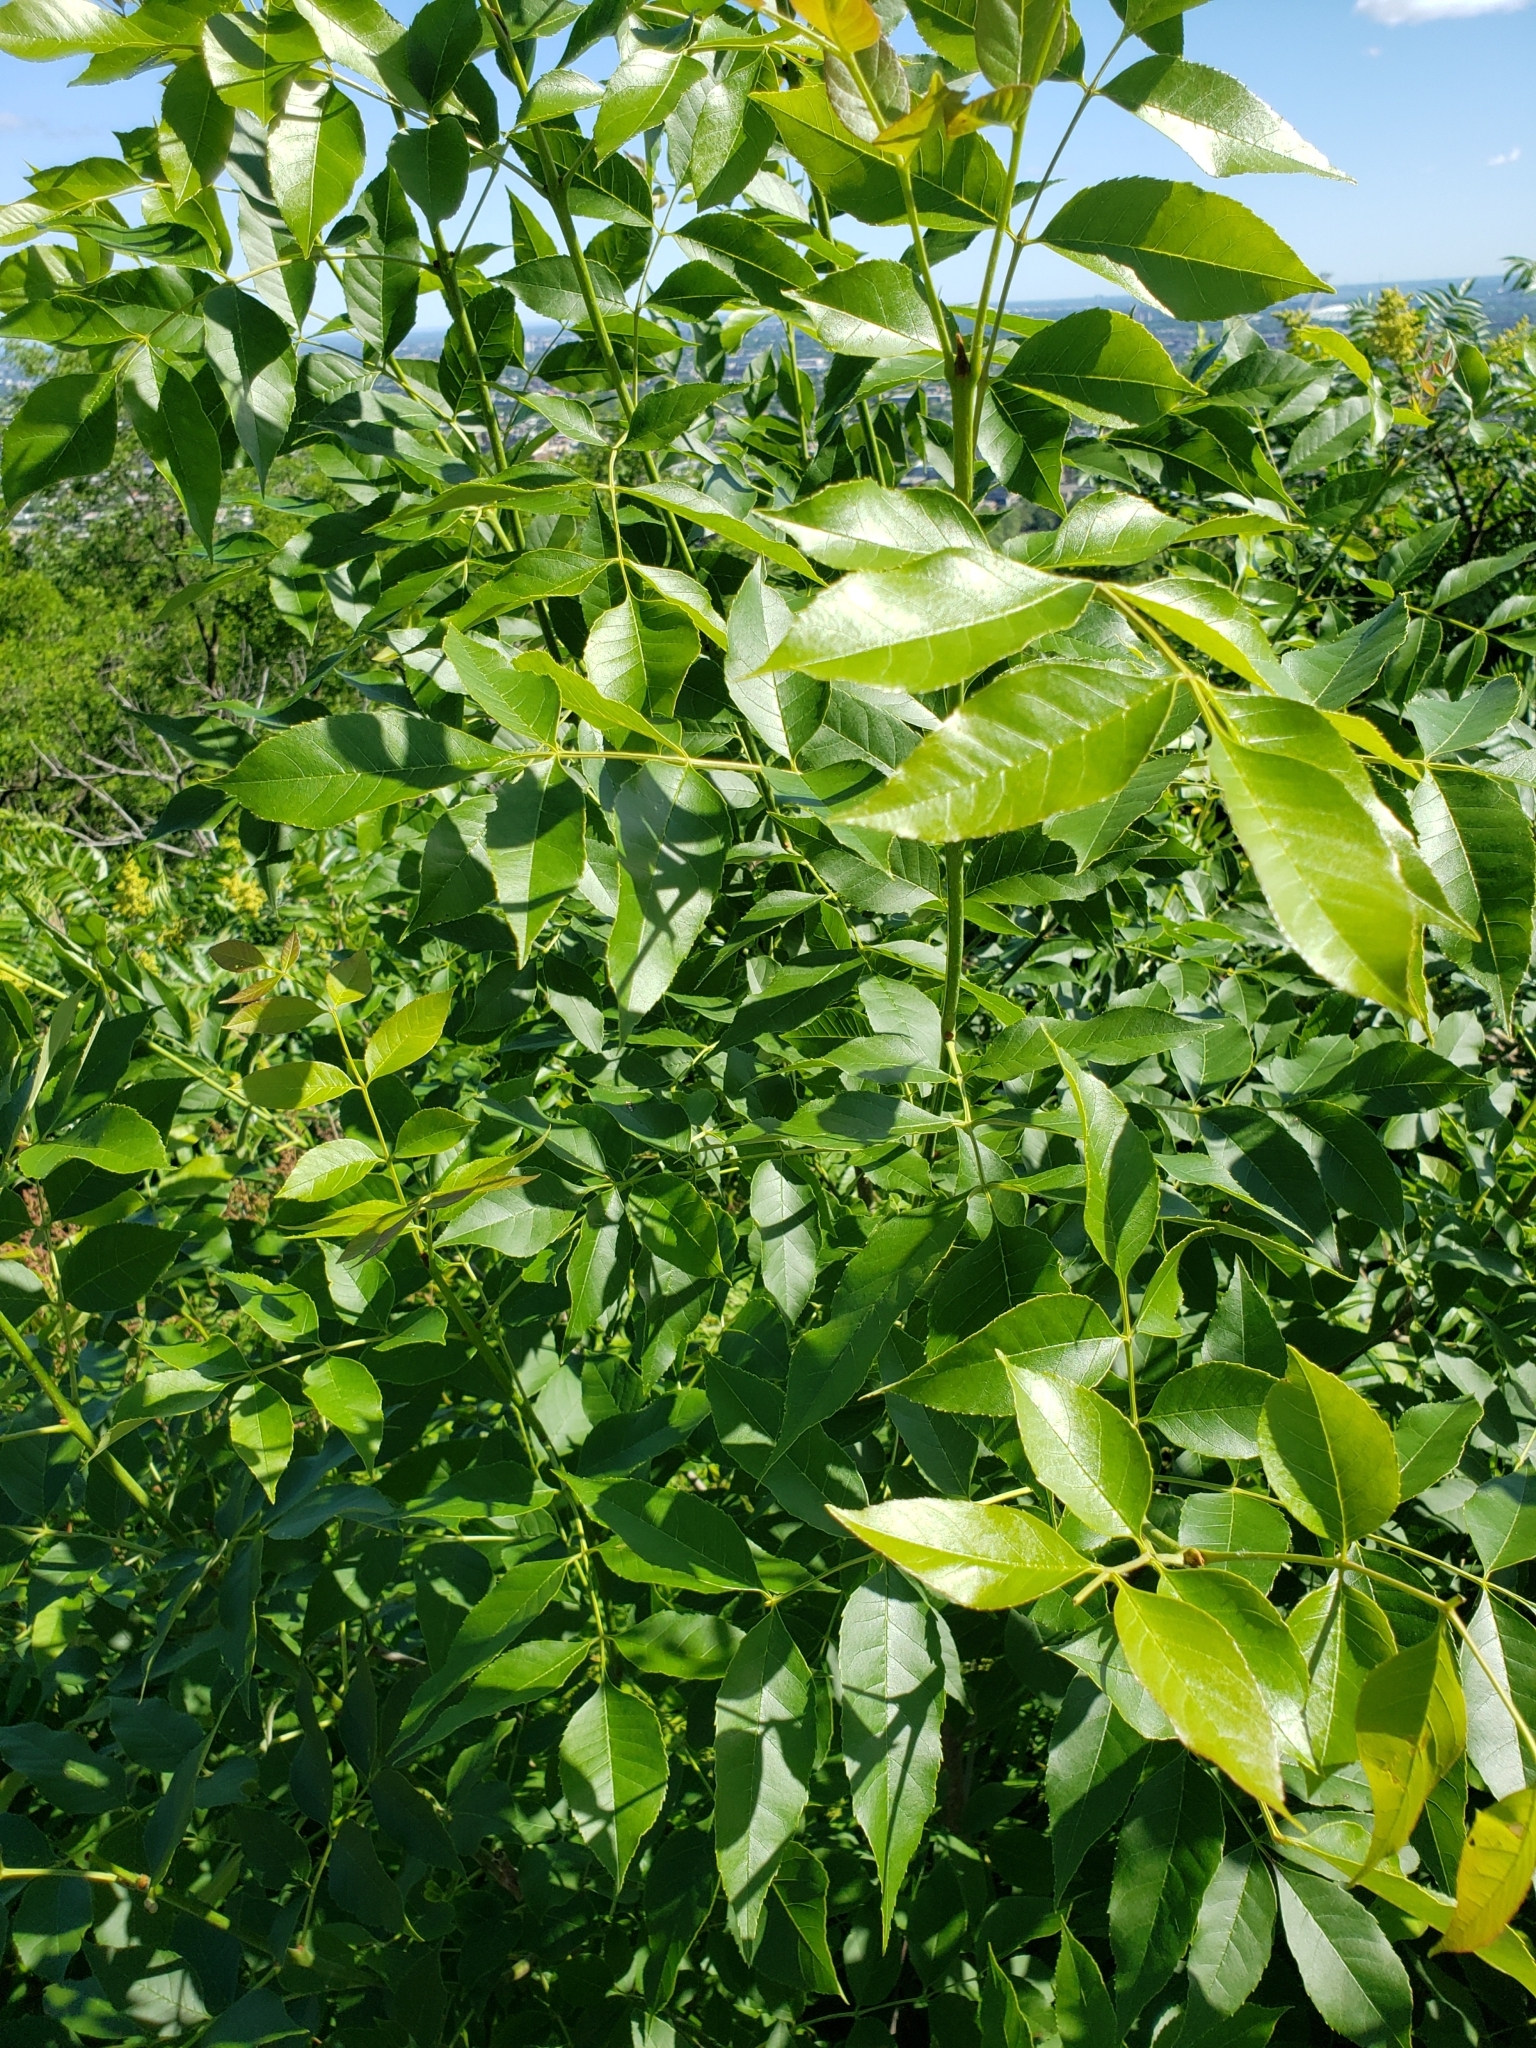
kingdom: Plantae
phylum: Tracheophyta
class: Magnoliopsida
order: Lamiales
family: Oleaceae
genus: Fraxinus
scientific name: Fraxinus pennsylvanica
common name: Green ash
